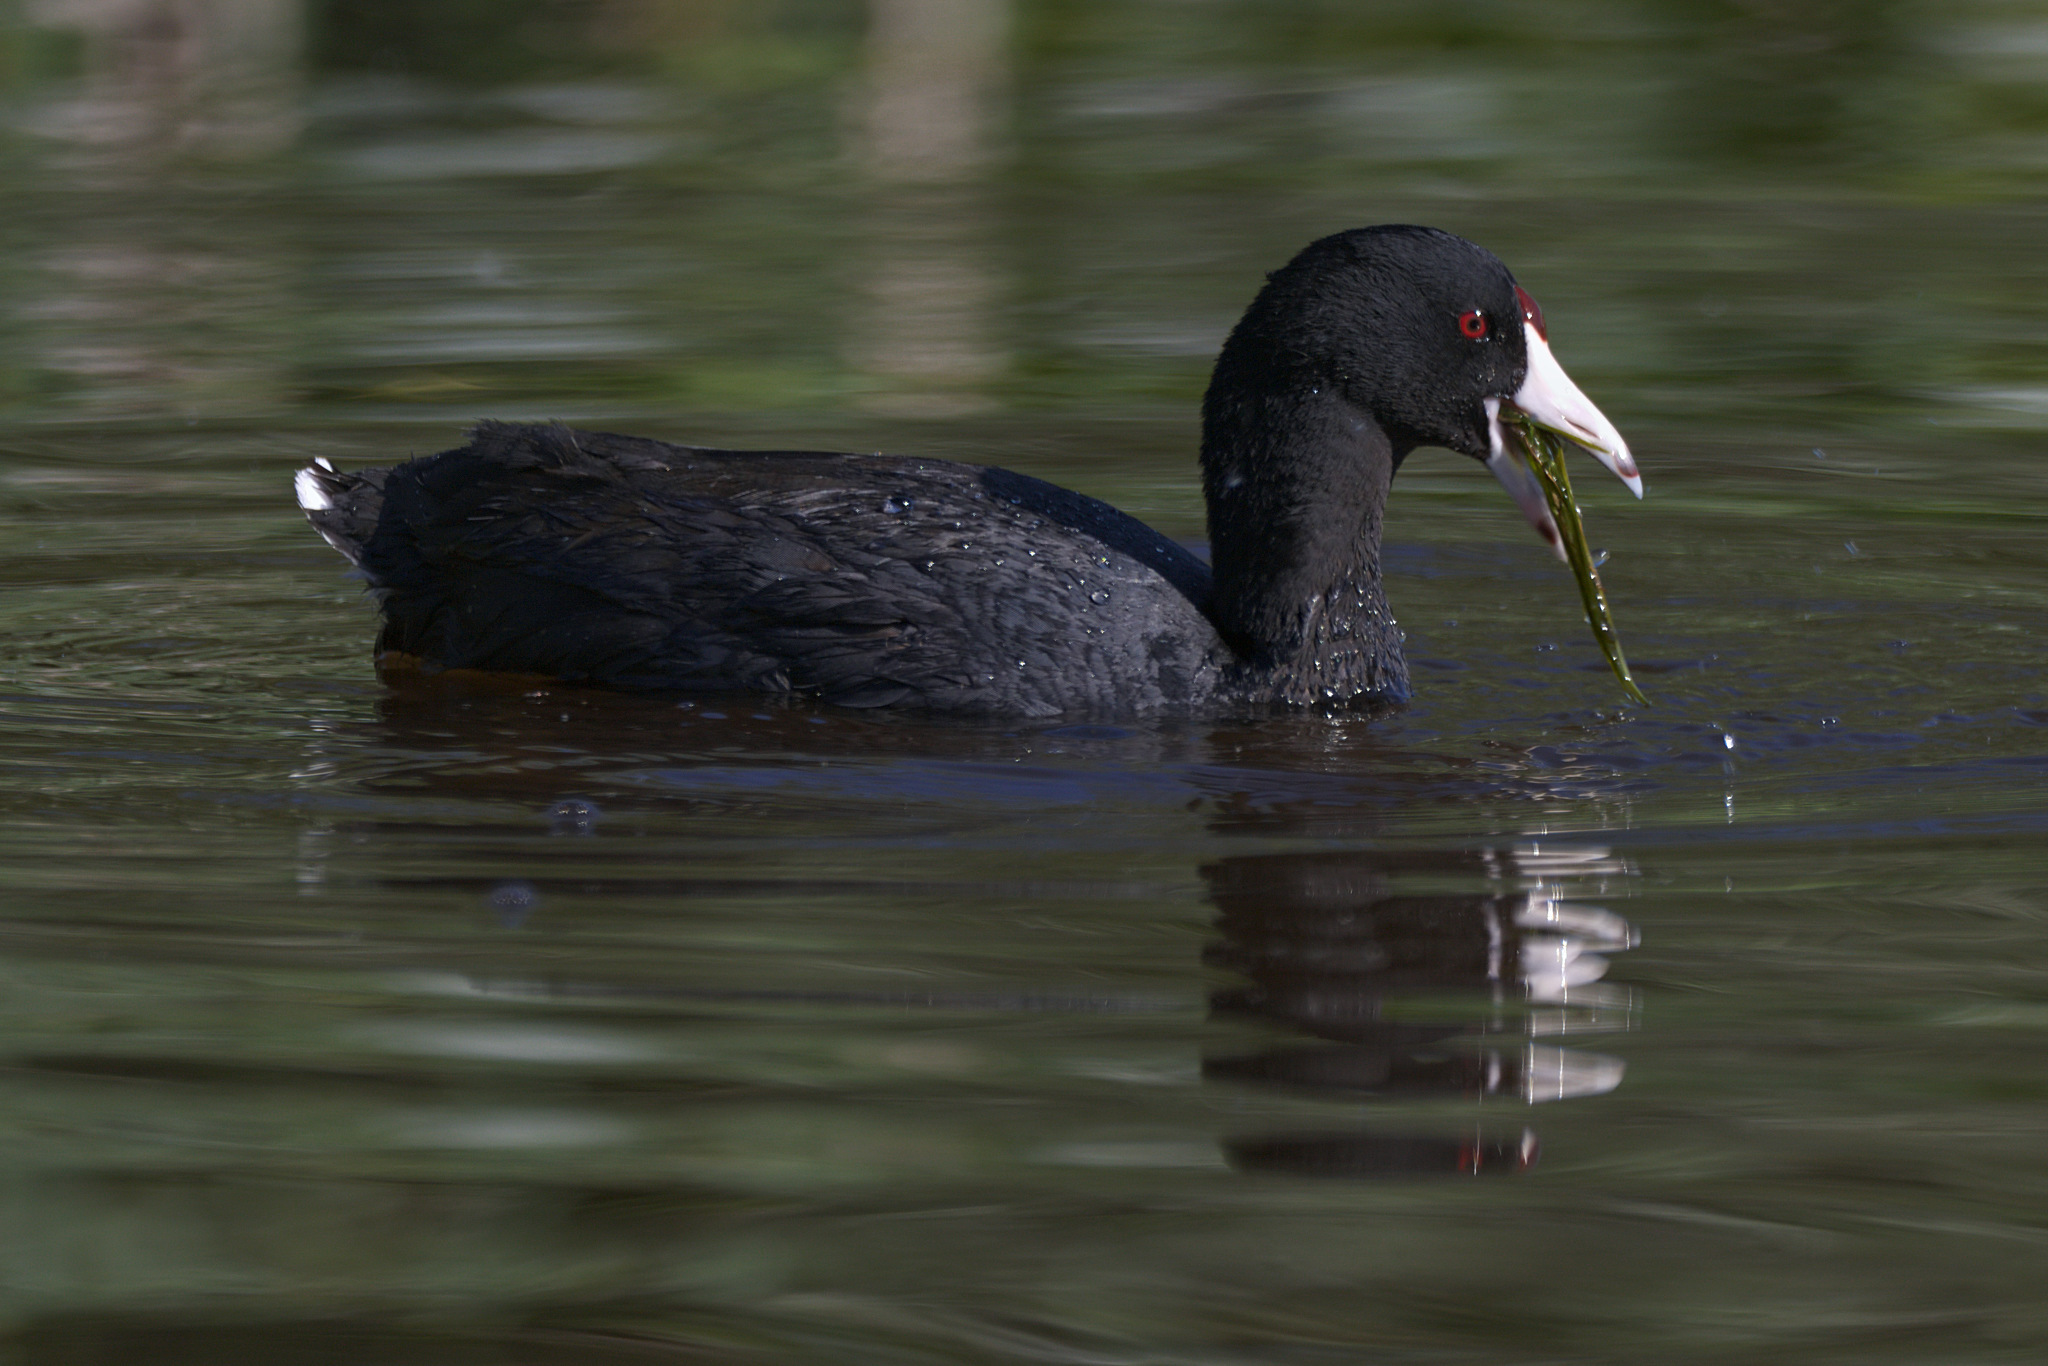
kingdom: Animalia
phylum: Chordata
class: Aves
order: Gruiformes
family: Rallidae
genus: Fulica
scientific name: Fulica americana
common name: American coot
